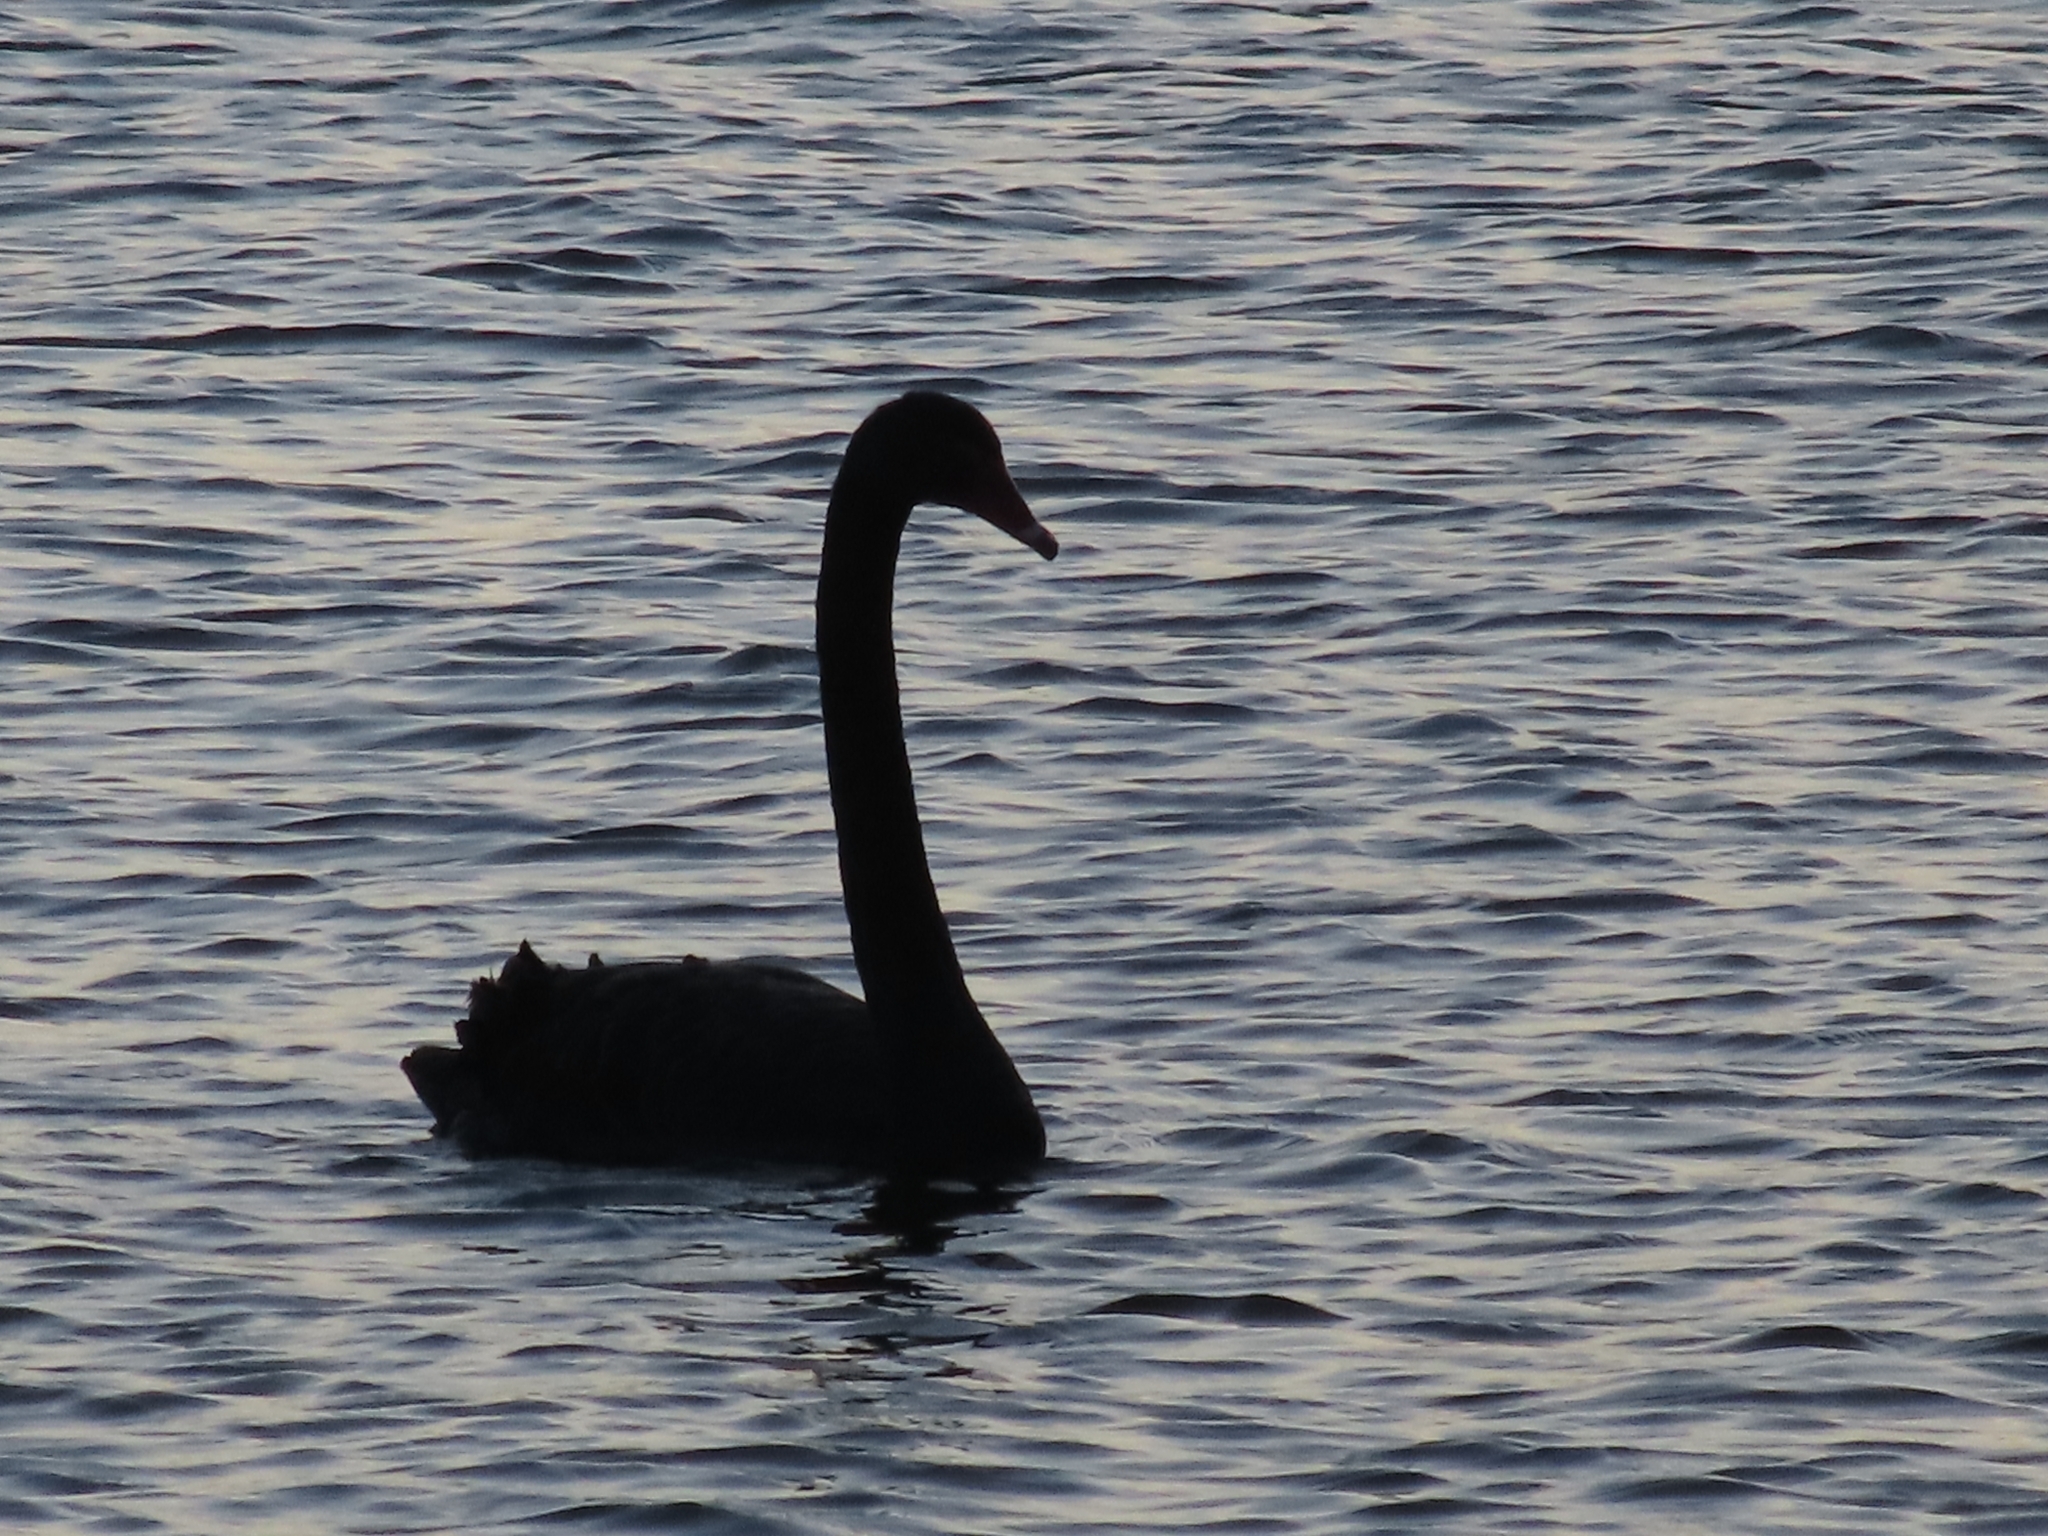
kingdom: Animalia
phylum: Chordata
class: Aves
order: Anseriformes
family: Anatidae
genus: Cygnus
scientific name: Cygnus atratus
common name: Black swan
